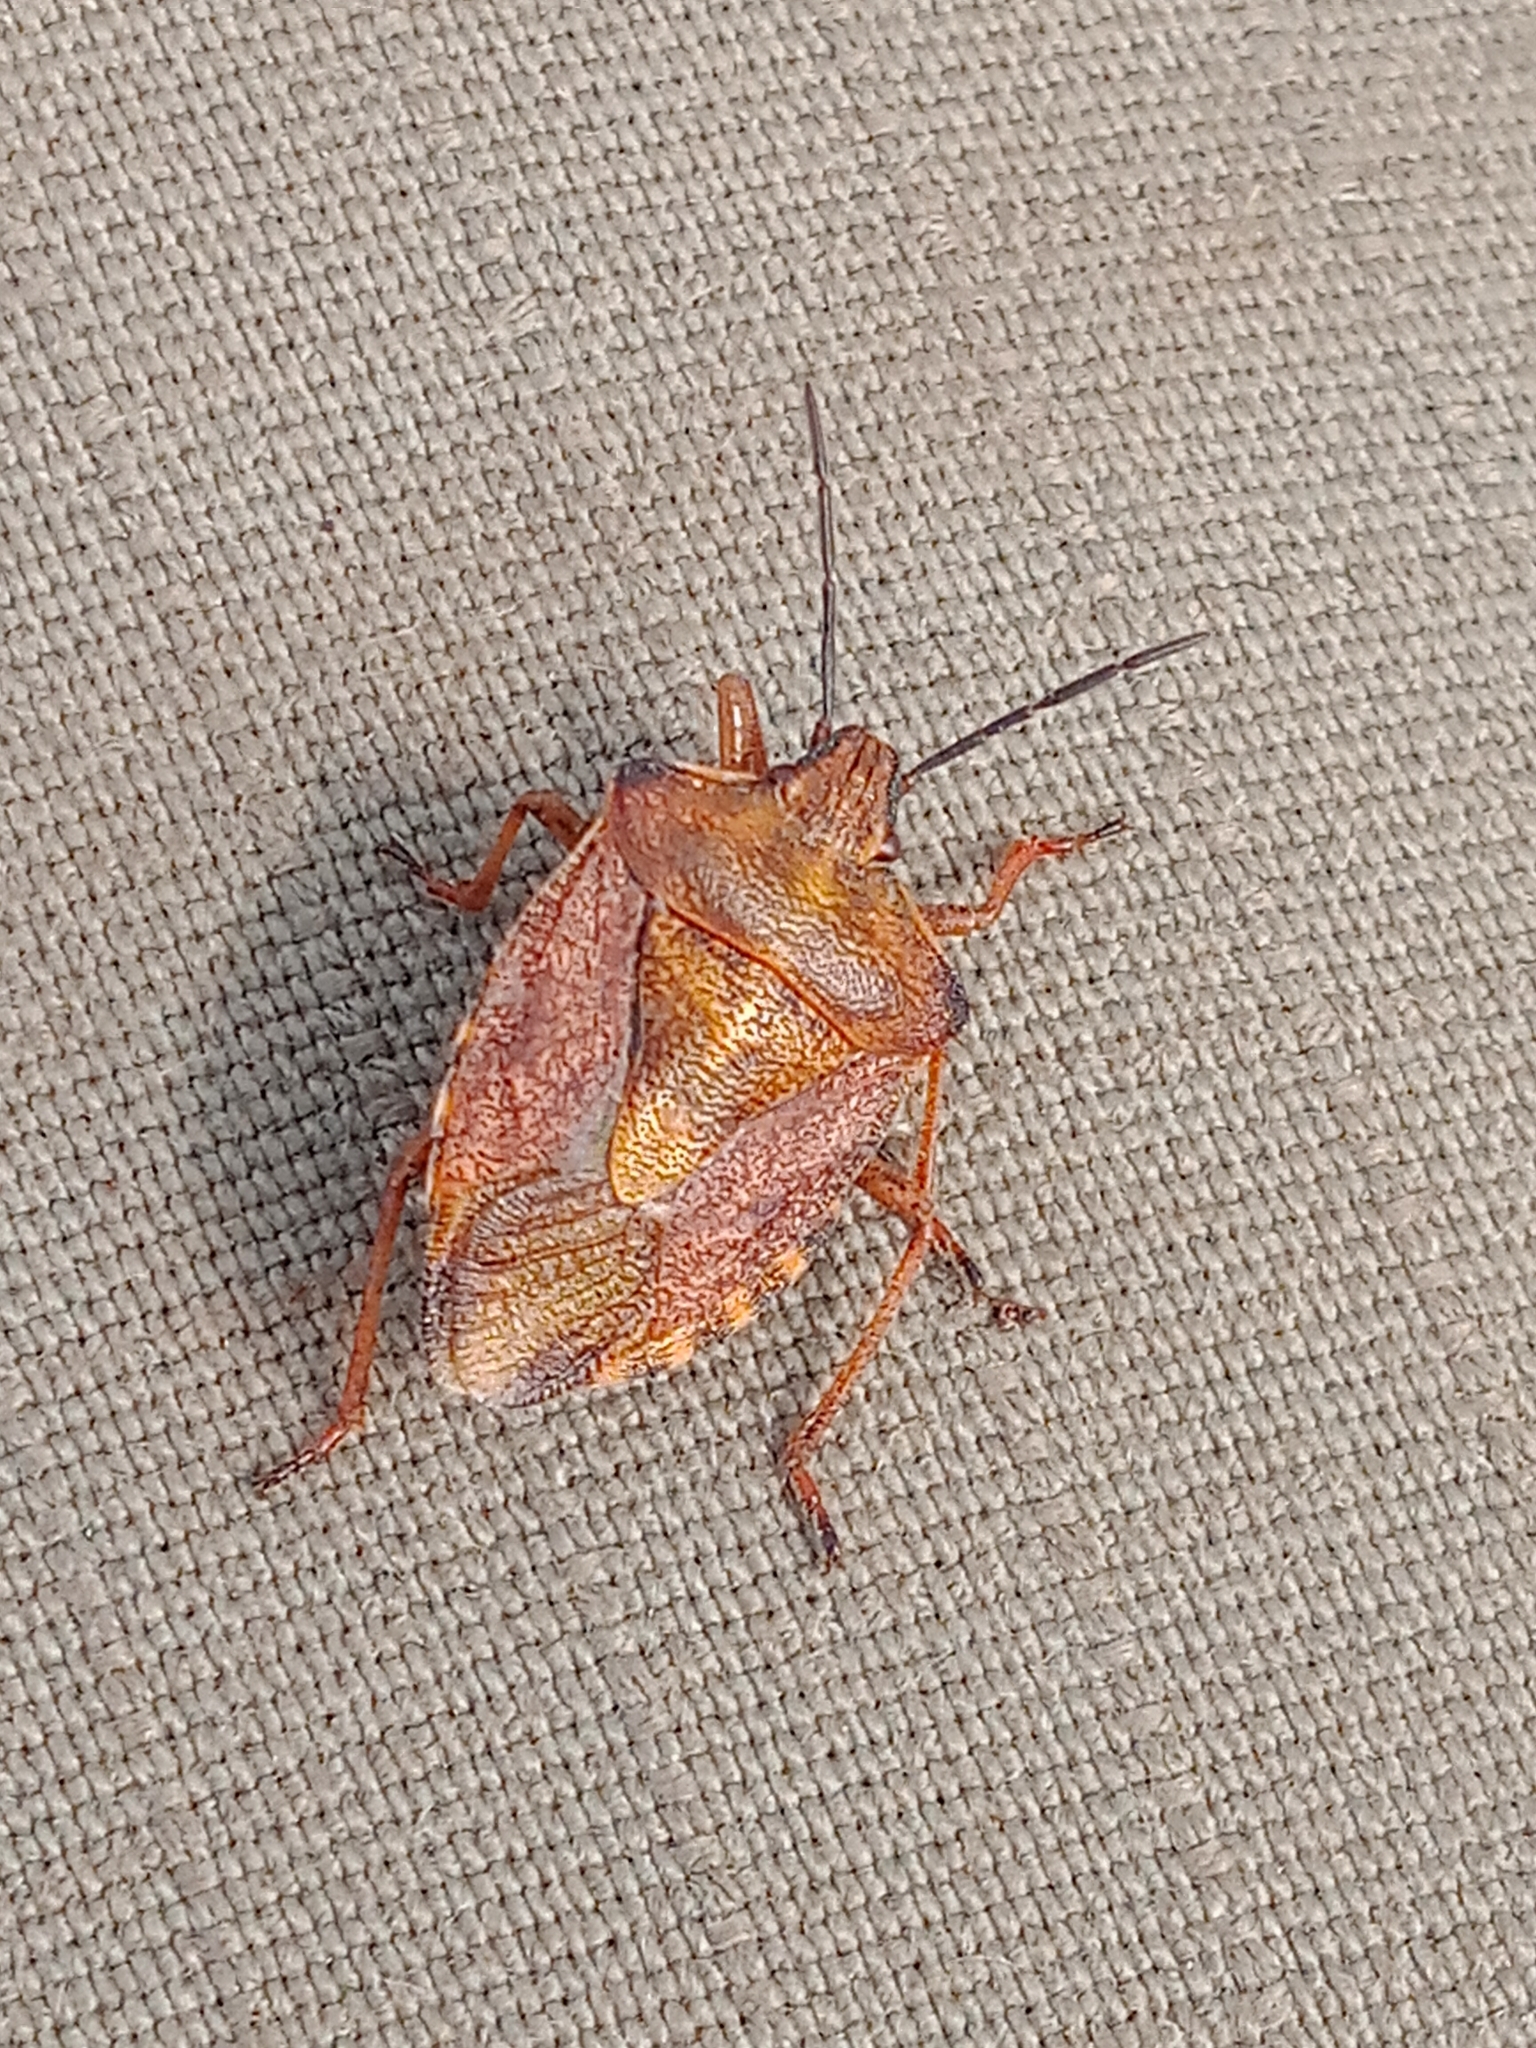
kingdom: Animalia
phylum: Arthropoda
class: Insecta
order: Hemiptera
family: Pentatomidae
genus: Carpocoris
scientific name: Carpocoris purpureipennis
